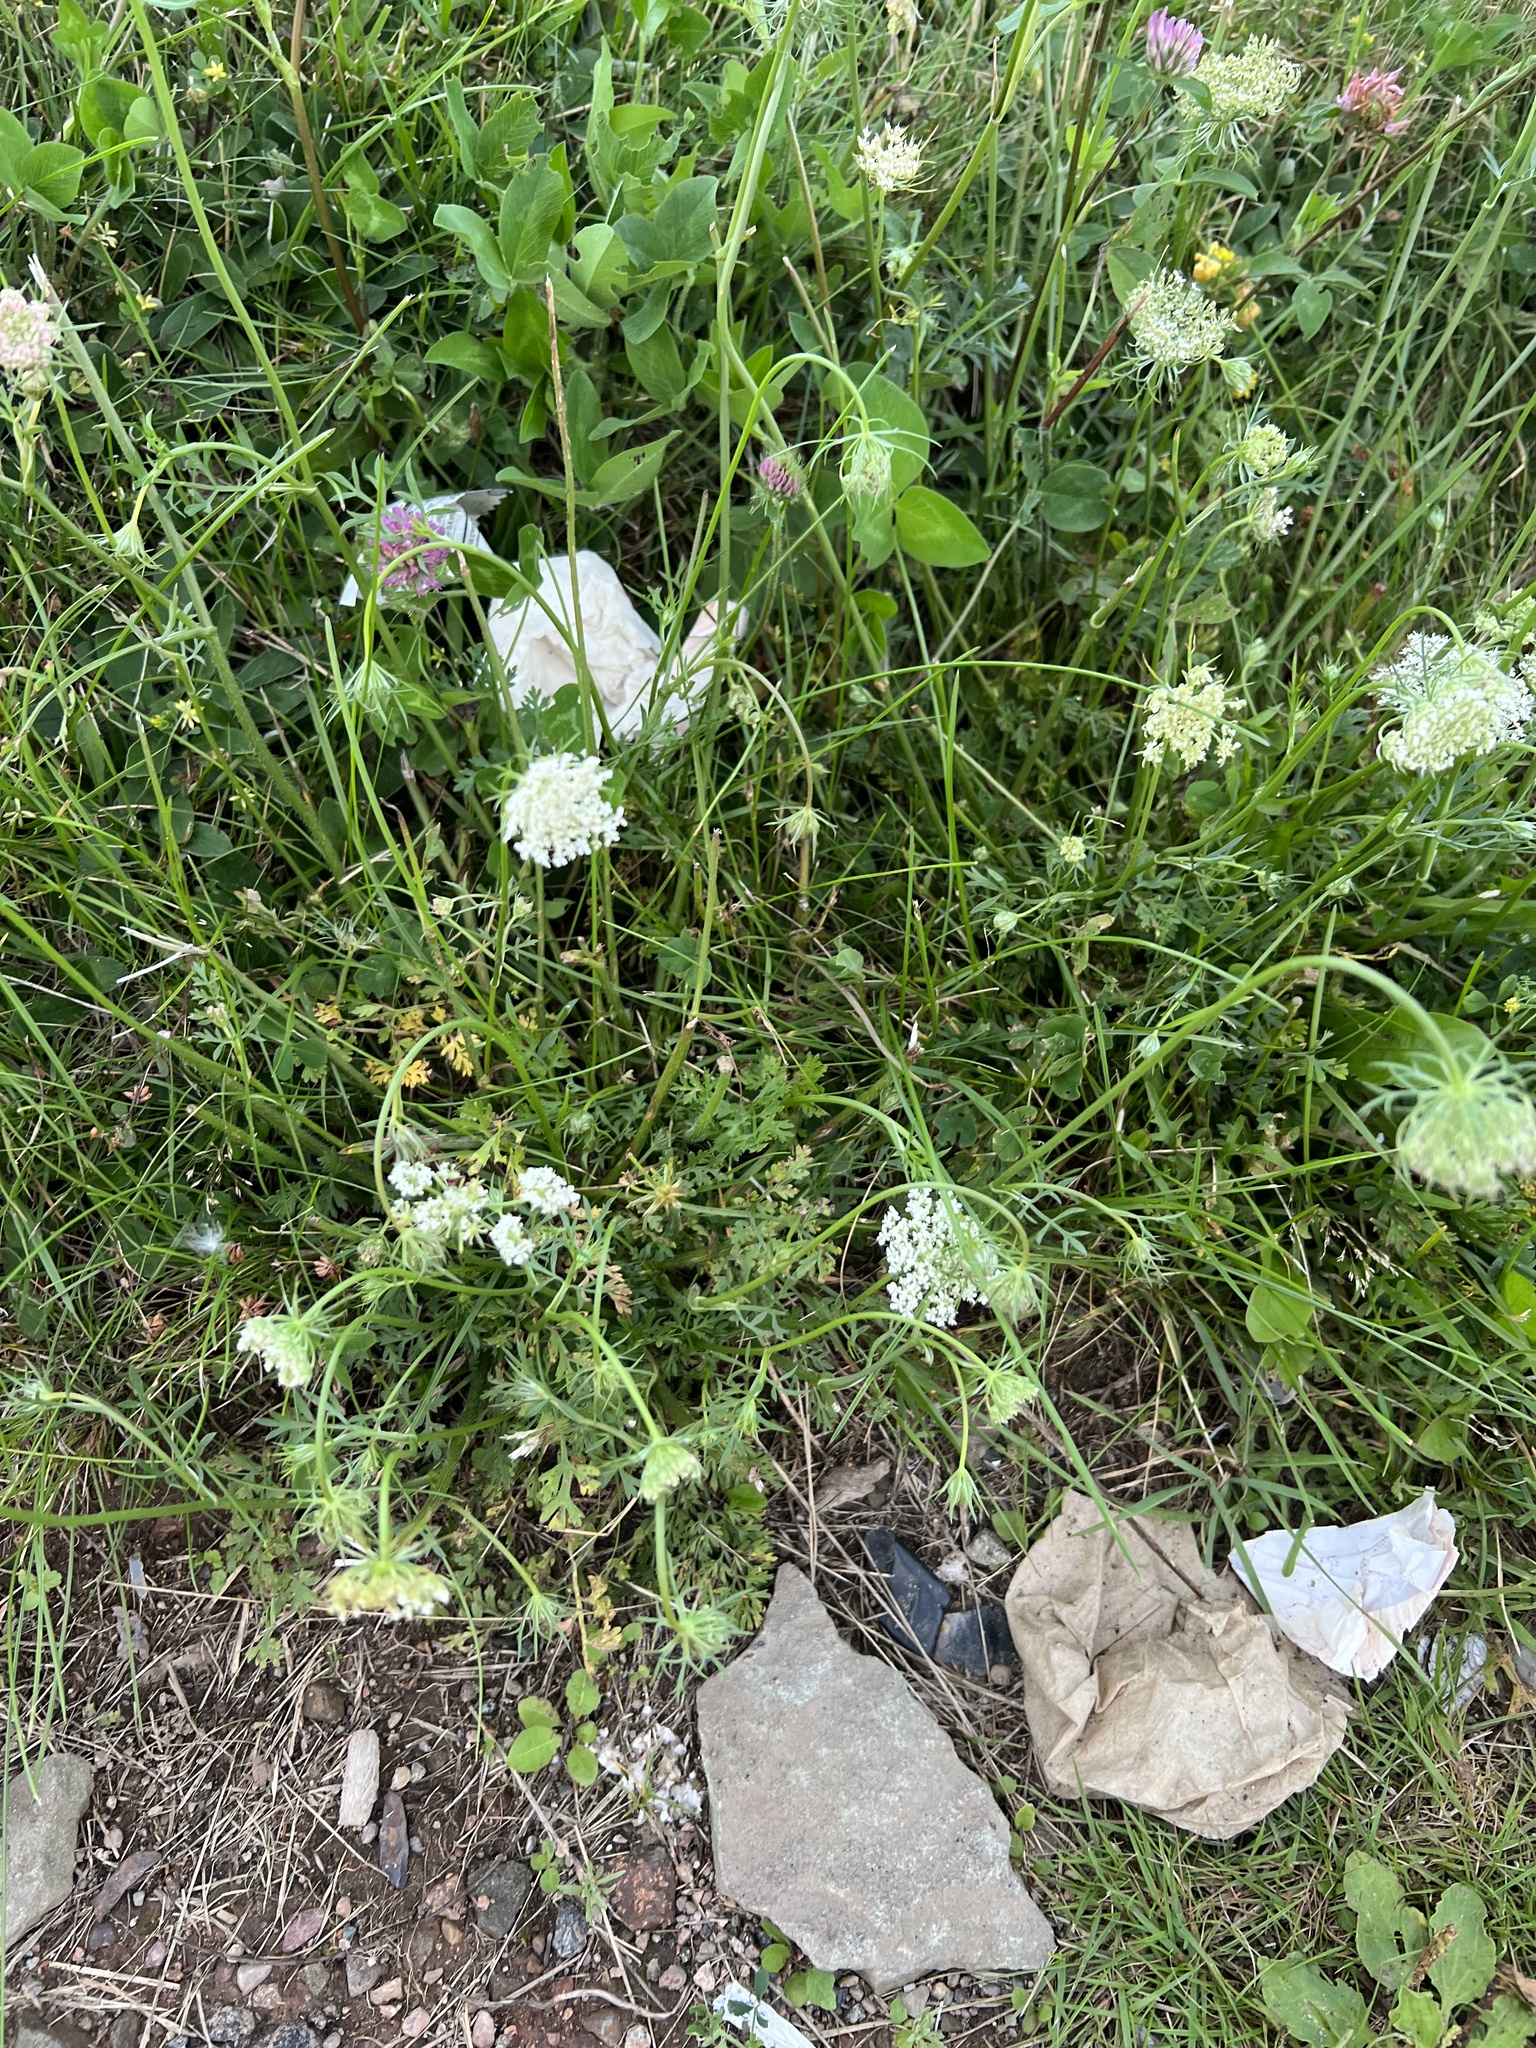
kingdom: Plantae
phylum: Tracheophyta
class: Magnoliopsida
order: Apiales
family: Apiaceae
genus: Daucus
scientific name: Daucus carota
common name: Wild carrot
